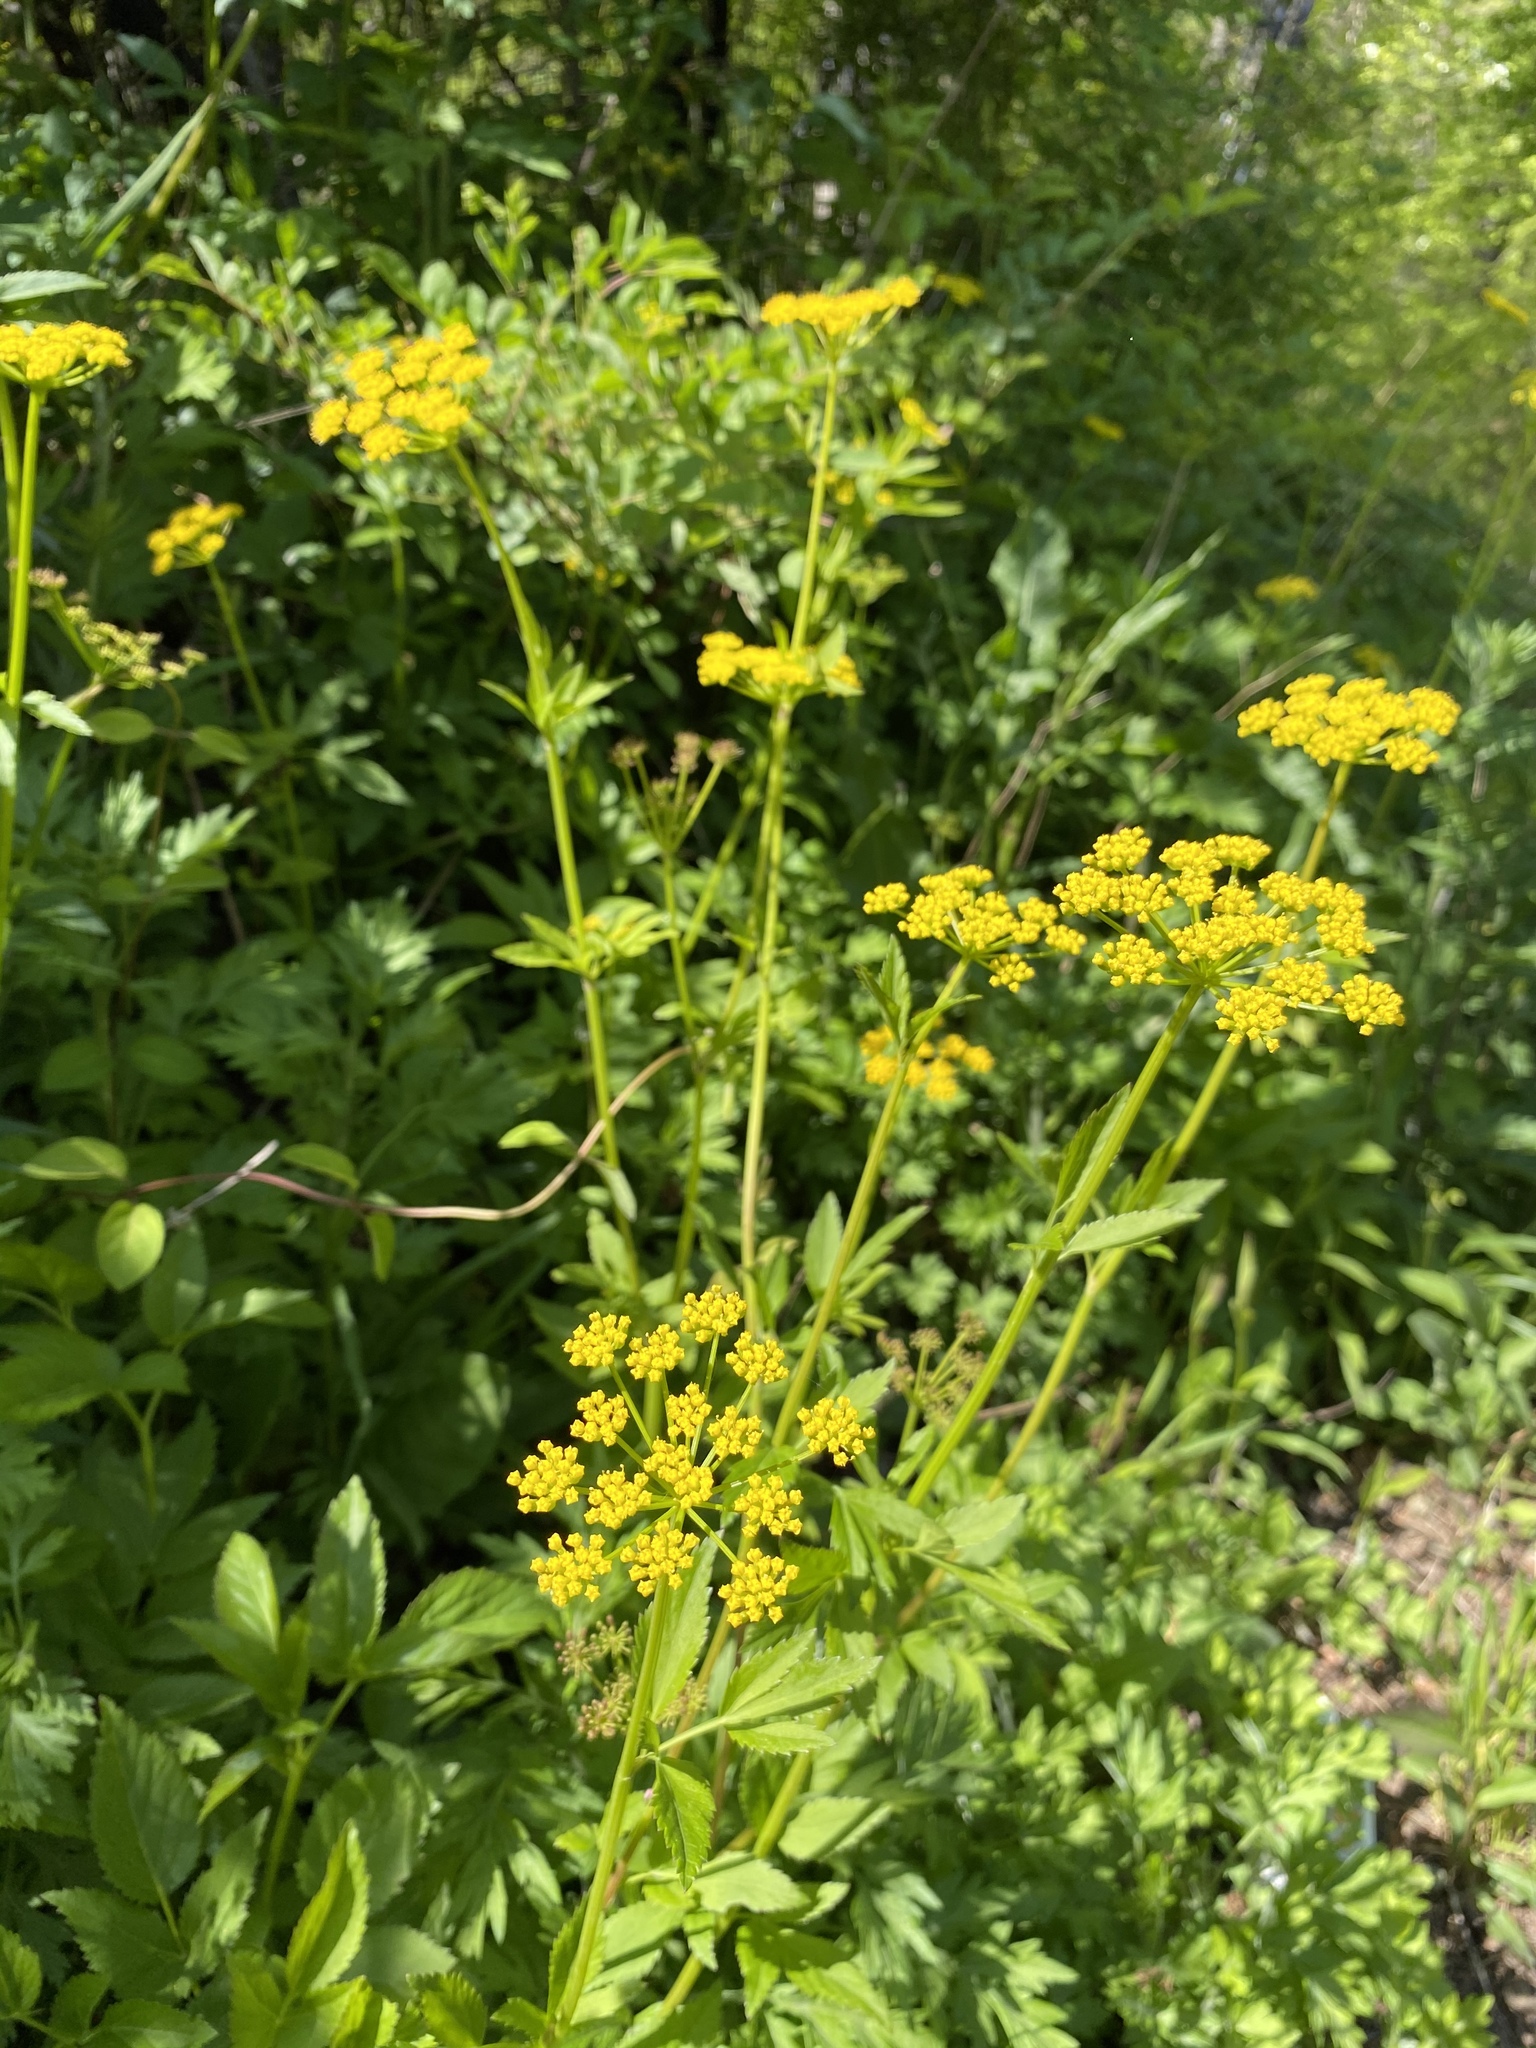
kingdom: Plantae
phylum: Tracheophyta
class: Magnoliopsida
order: Apiales
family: Apiaceae
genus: Zizia
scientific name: Zizia aurea
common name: Golden alexanders
